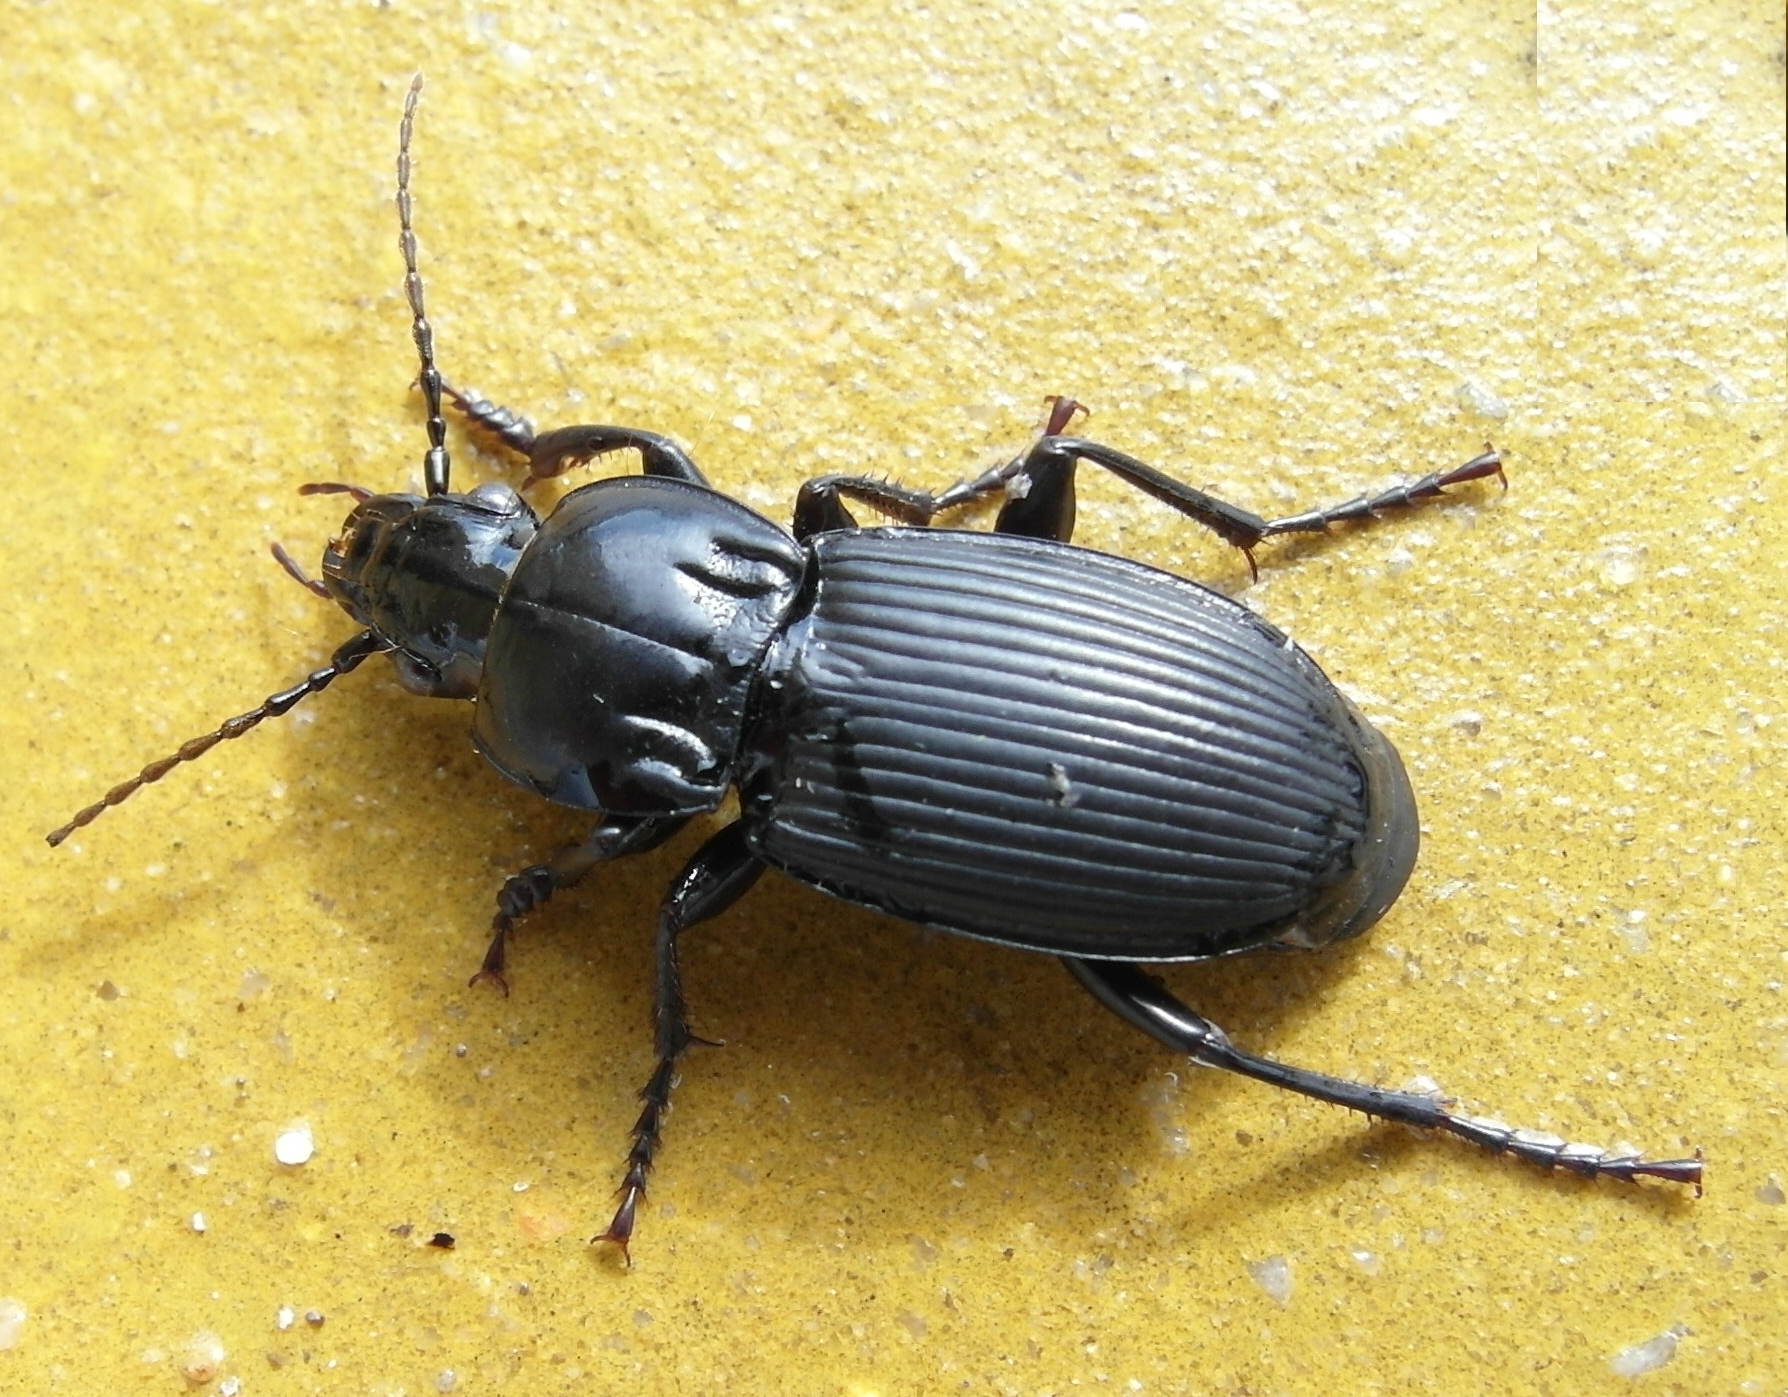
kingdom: Animalia
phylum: Arthropoda
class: Insecta
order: Coleoptera
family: Carabidae
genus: Pterostichus
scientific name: Pterostichus melas
